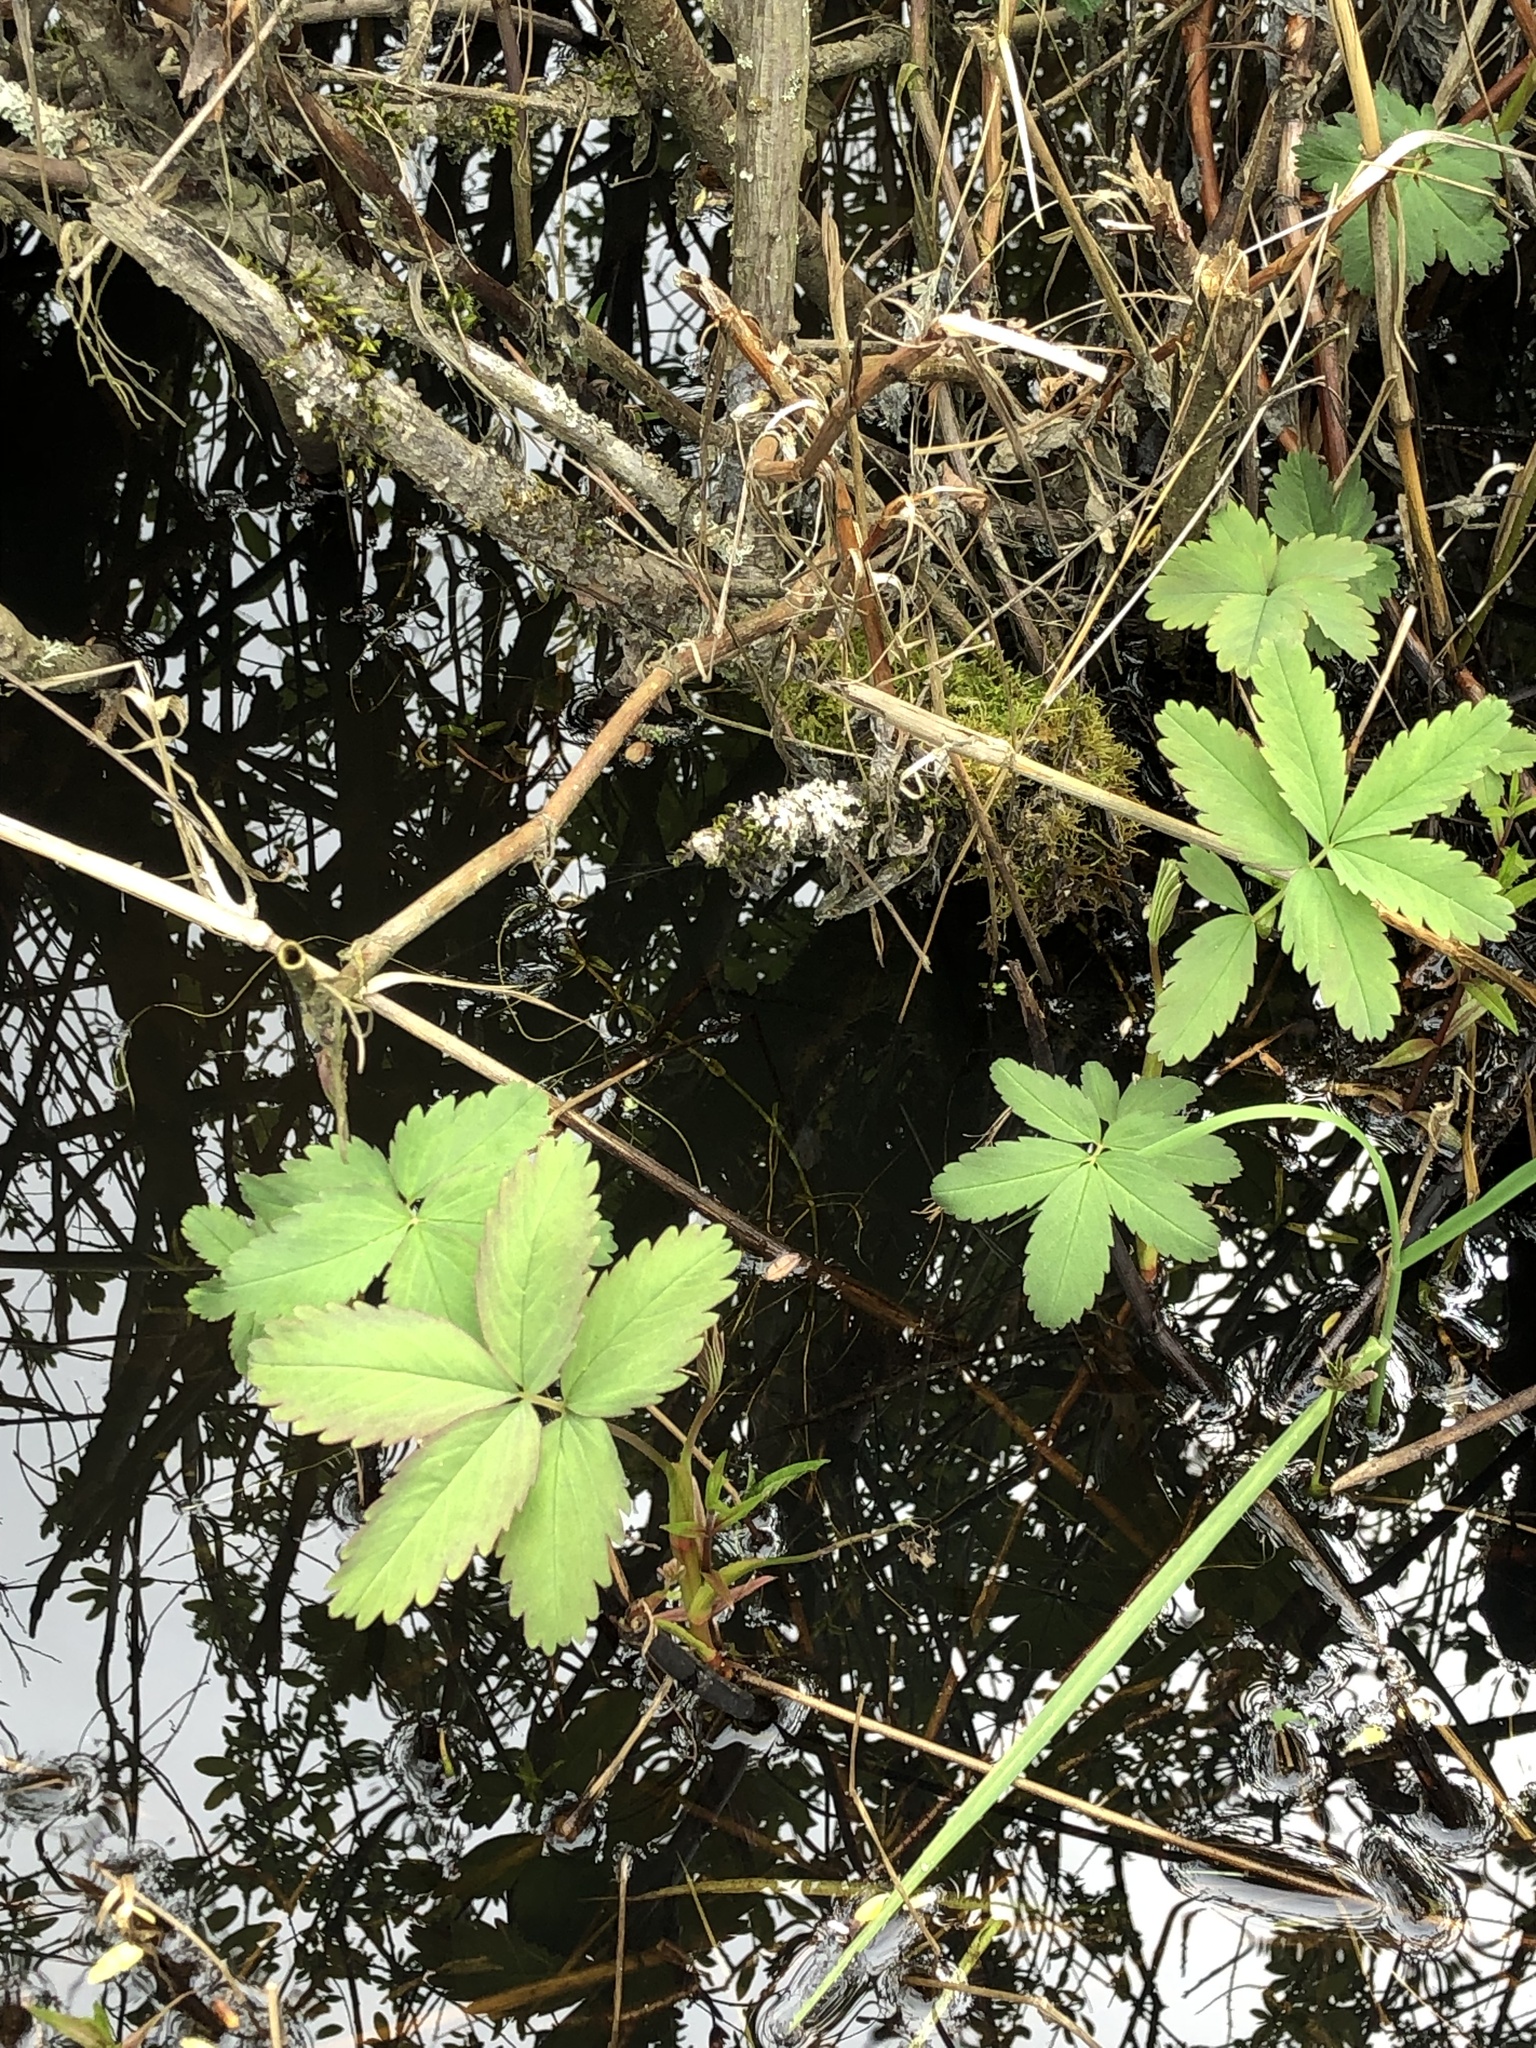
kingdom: Plantae
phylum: Tracheophyta
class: Magnoliopsida
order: Rosales
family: Rosaceae
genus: Comarum
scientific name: Comarum palustre
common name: Marsh cinquefoil
